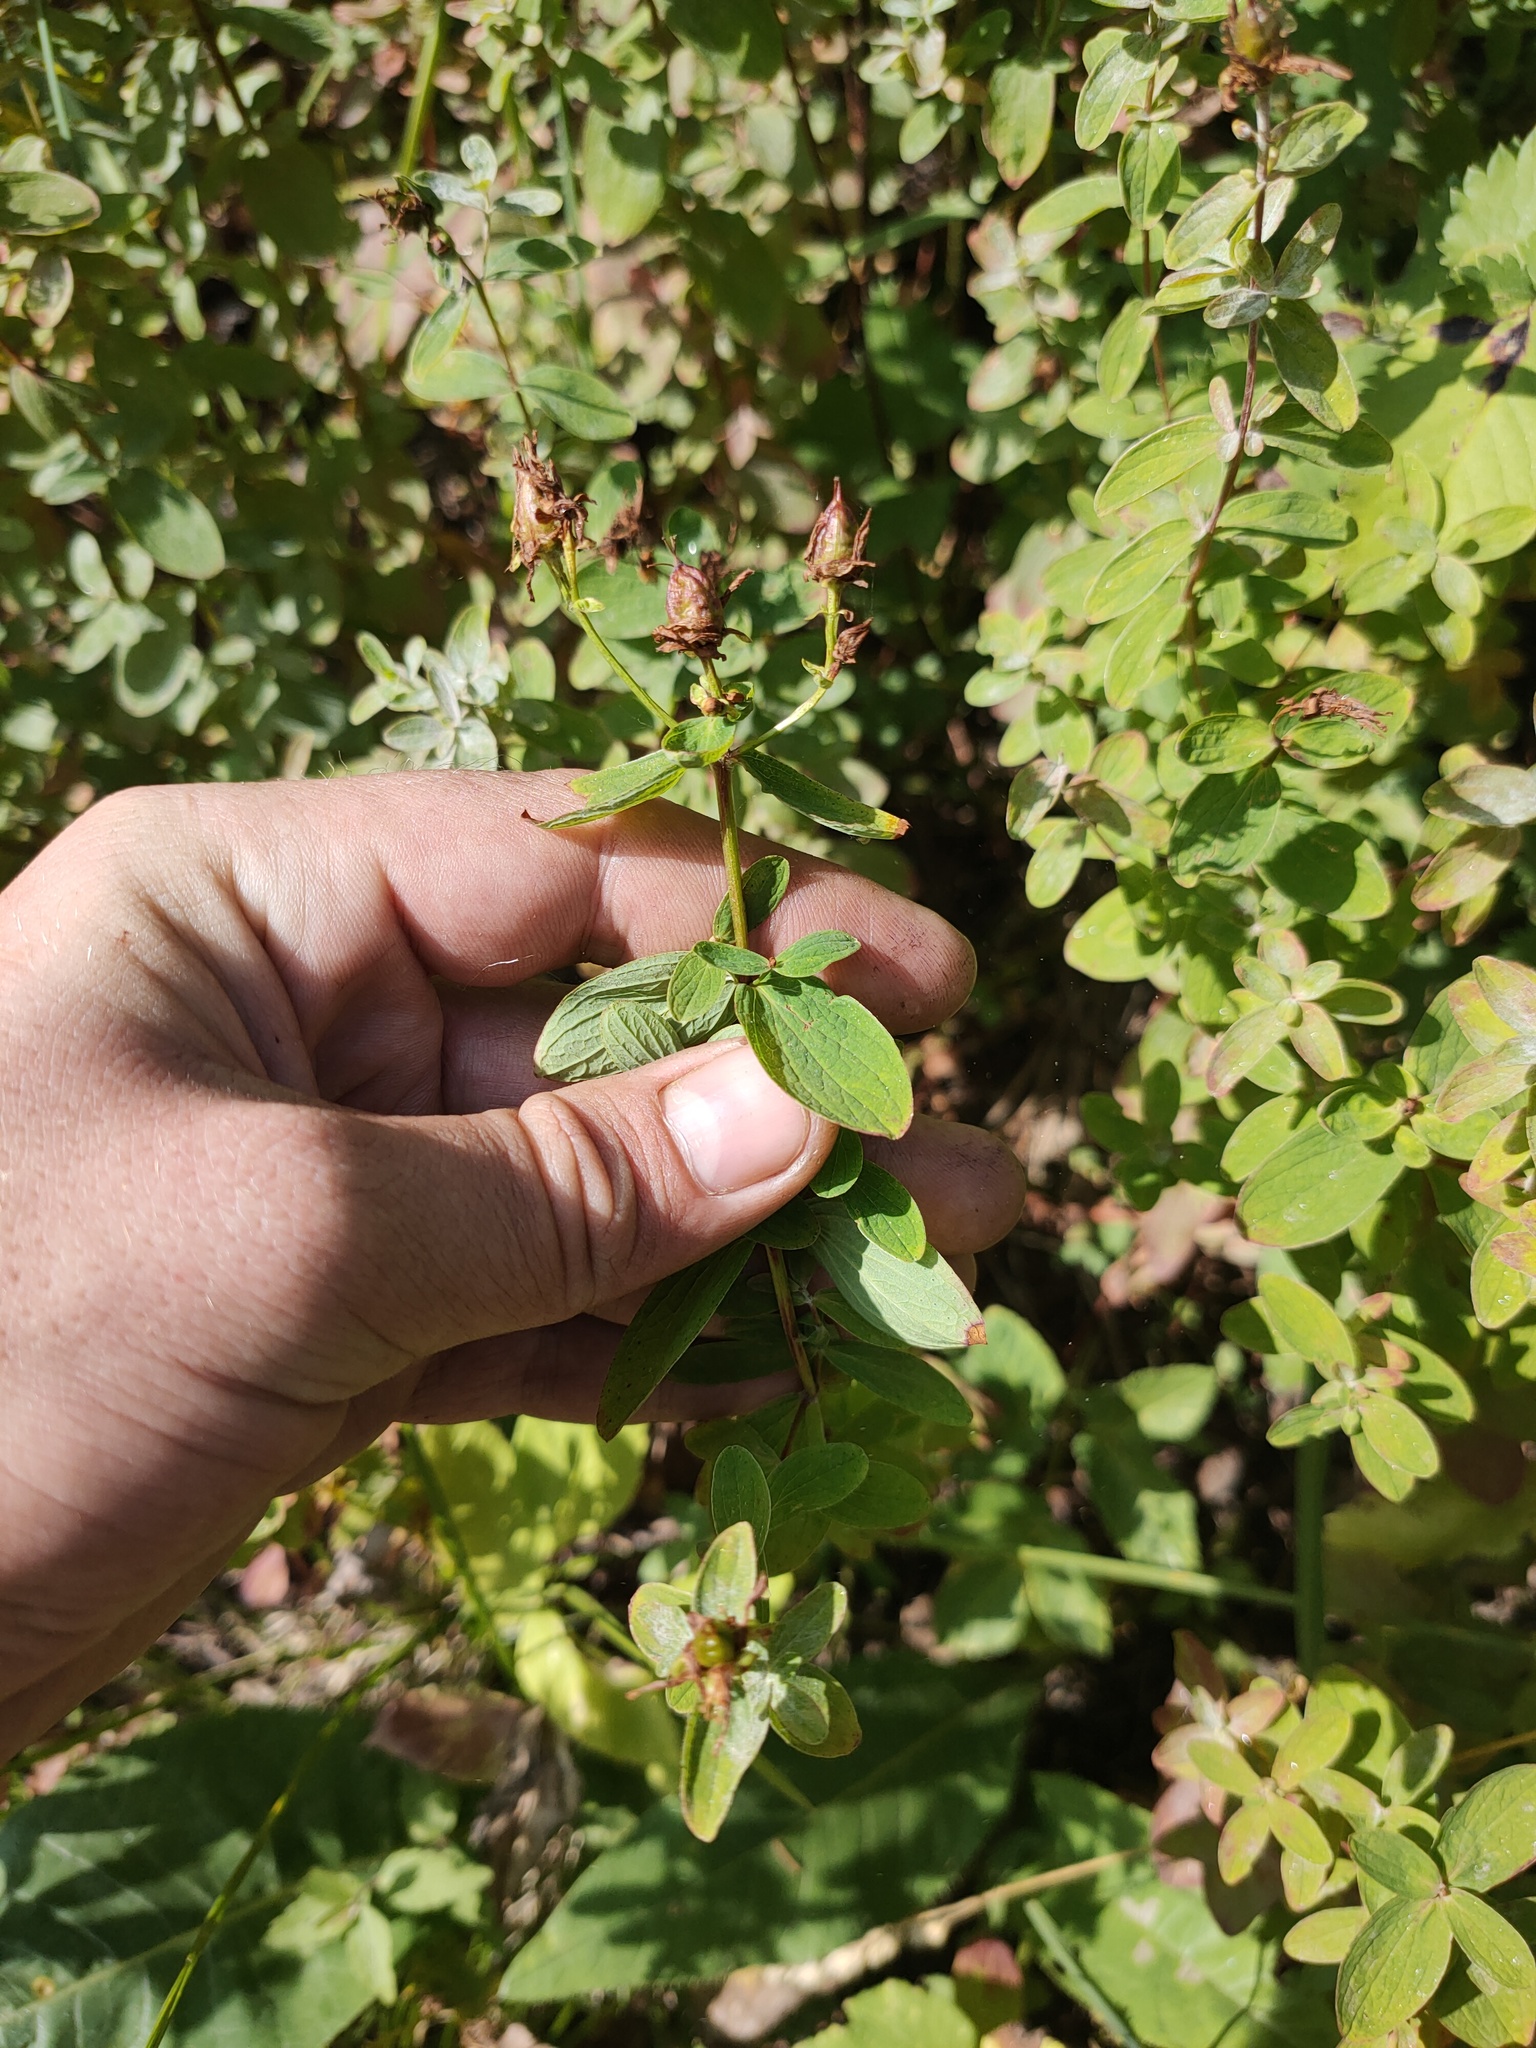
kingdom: Plantae
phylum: Tracheophyta
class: Magnoliopsida
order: Malpighiales
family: Hypericaceae
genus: Hypericum
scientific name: Hypericum maculatum
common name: Imperforate st. john's-wort
